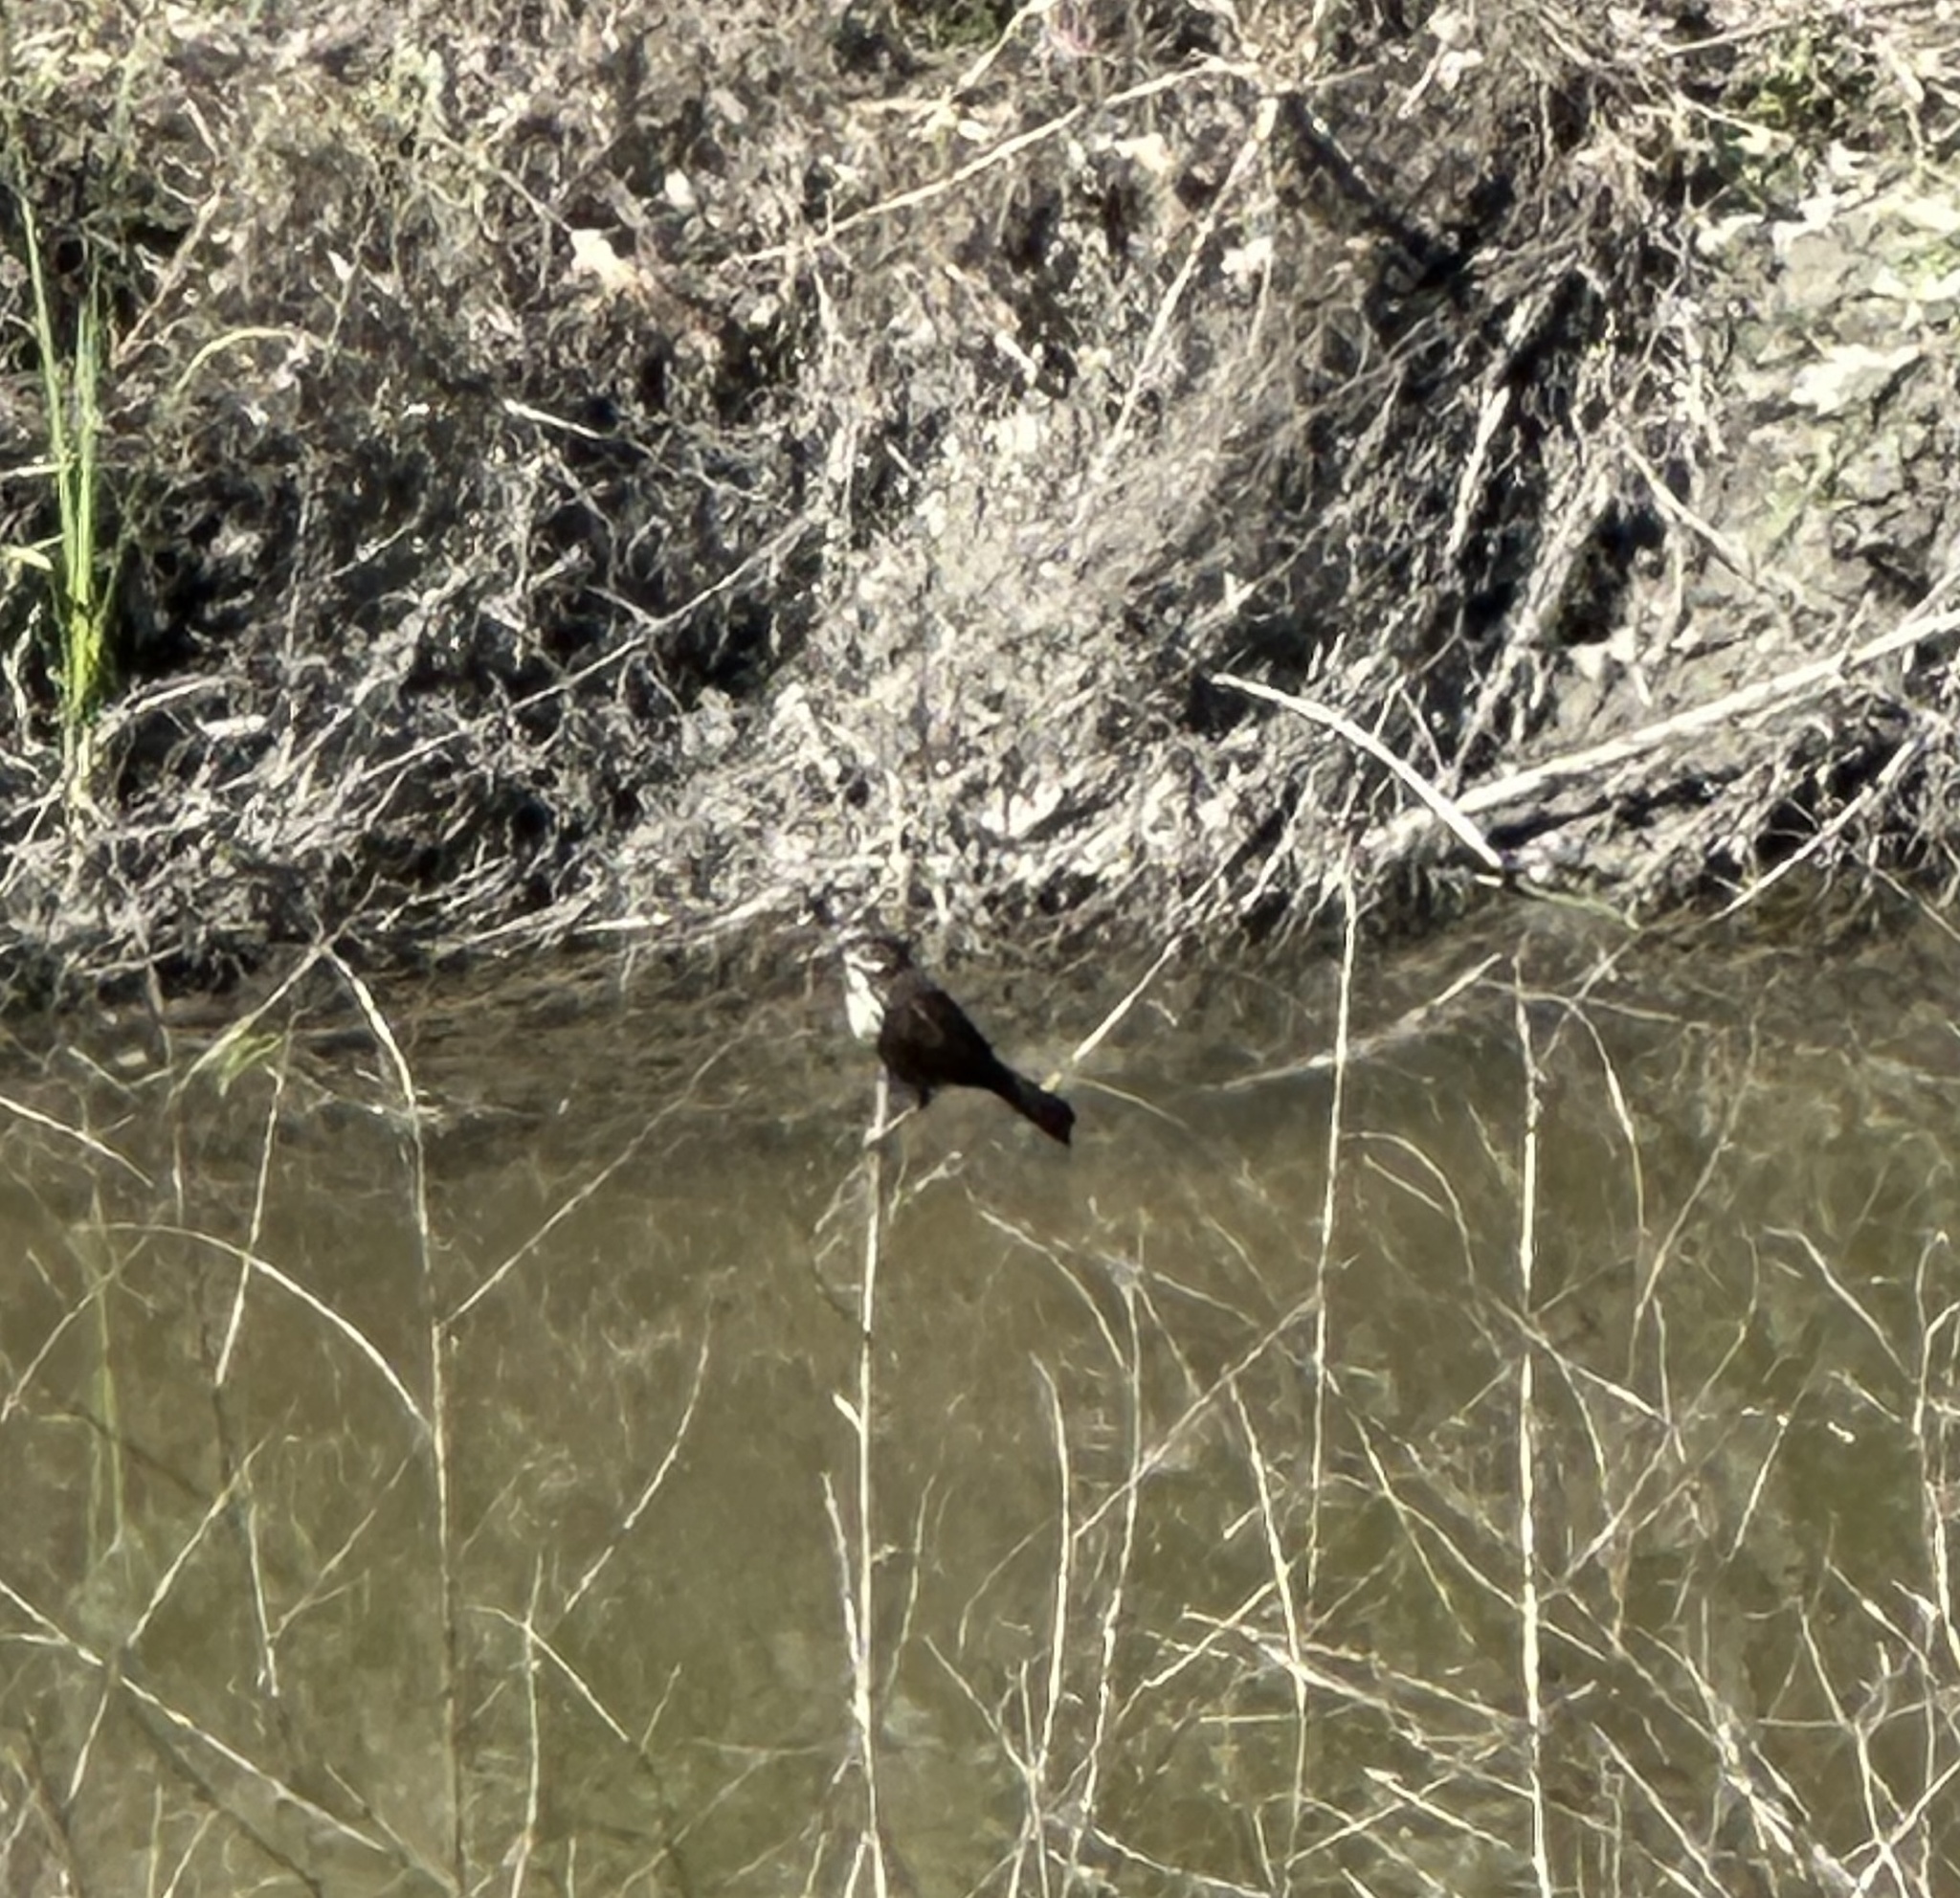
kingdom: Animalia
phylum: Chordata
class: Aves
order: Passeriformes
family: Passerellidae
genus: Melospiza
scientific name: Melospiza melodia
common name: Song sparrow
